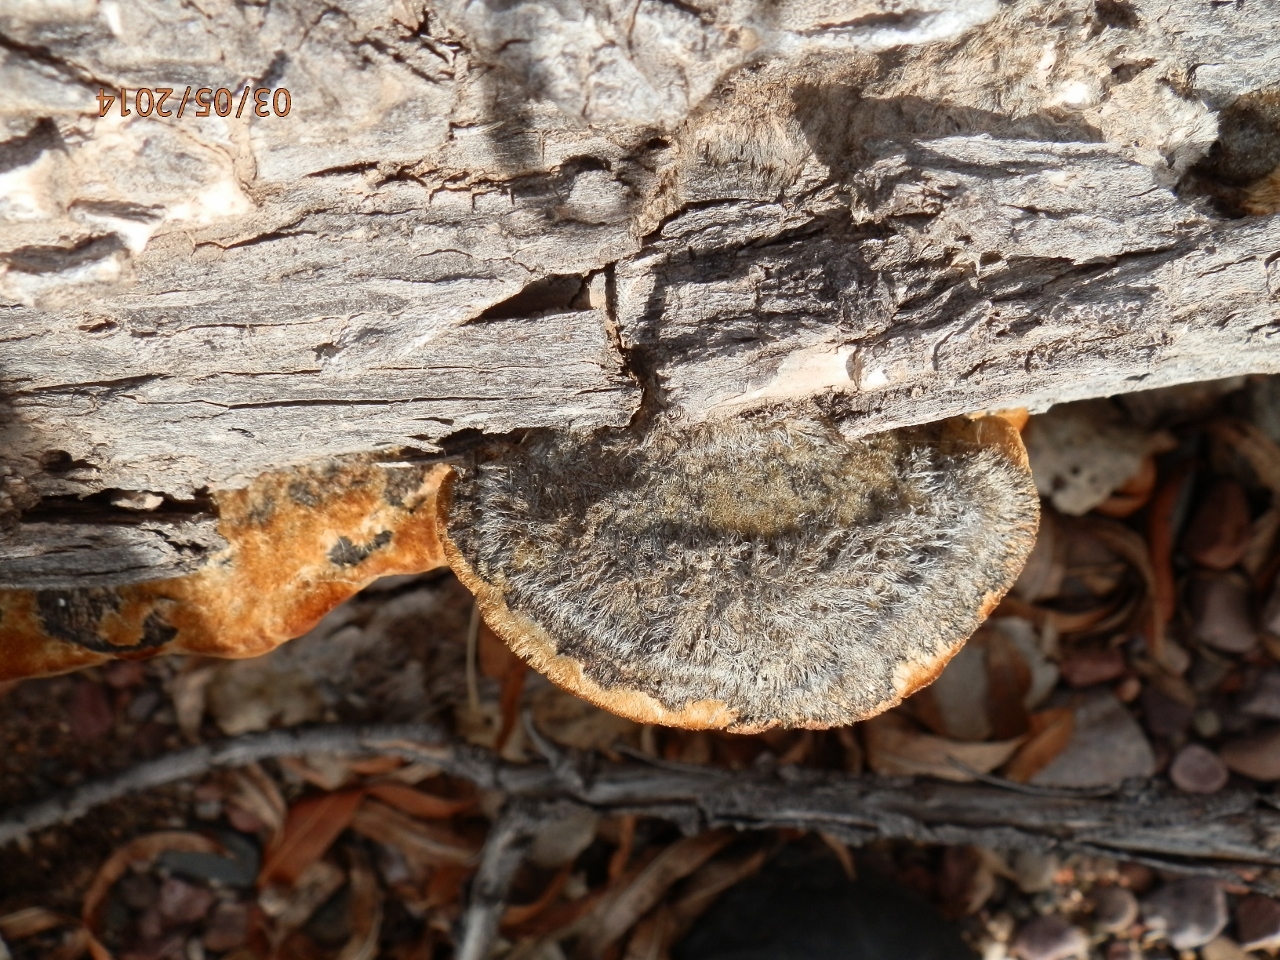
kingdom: Fungi
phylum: Basidiomycota
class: Agaricomycetes
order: Polyporales
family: Polyporaceae
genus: Coriolopsis
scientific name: Coriolopsis gallica
